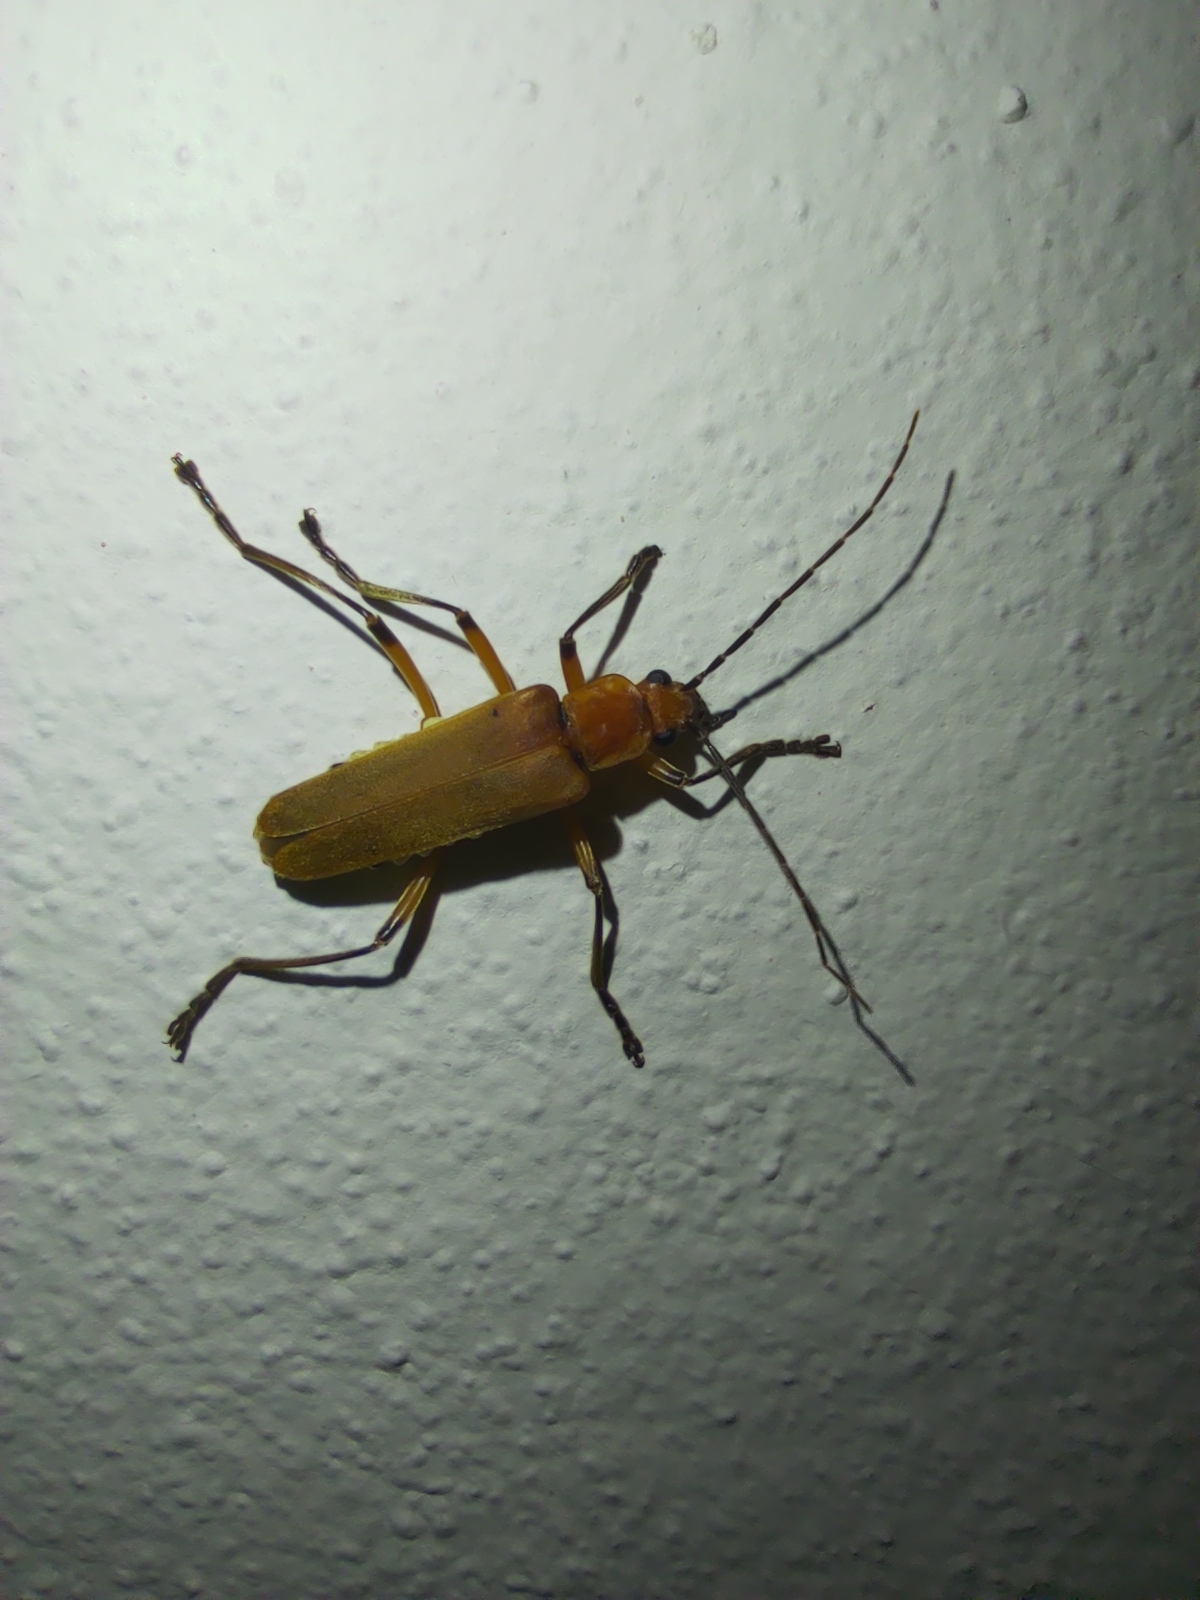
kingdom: Animalia
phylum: Arthropoda
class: Insecta
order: Coleoptera
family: Cantharidae
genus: Chauliognathus
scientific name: Chauliognathus
